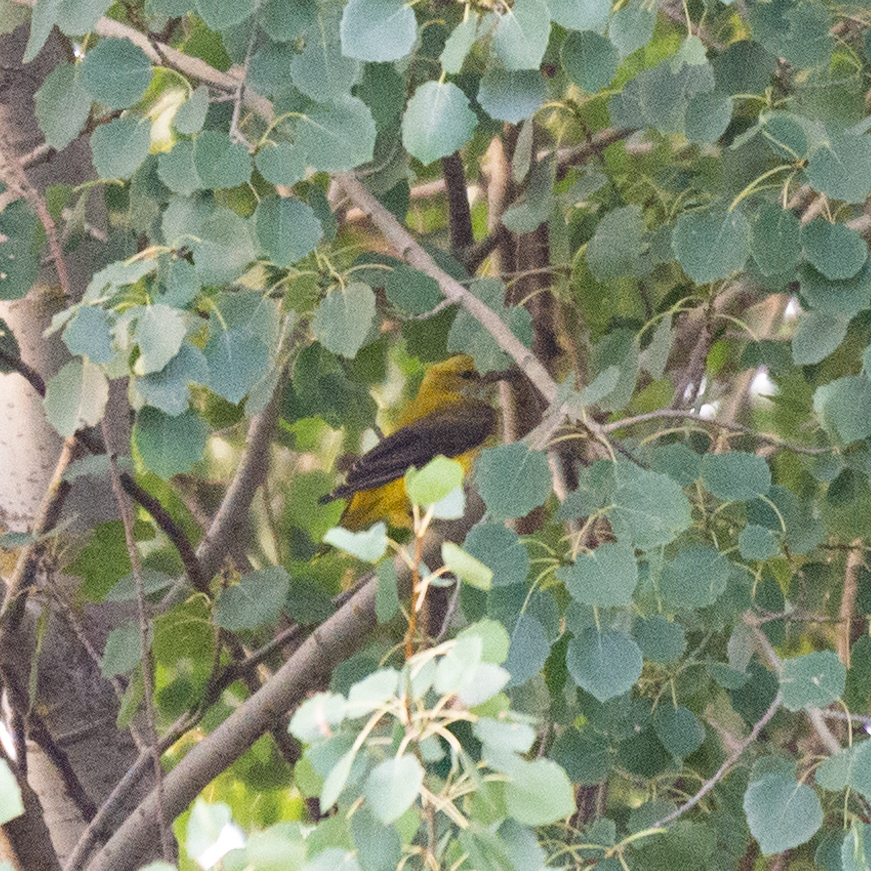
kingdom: Animalia
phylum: Chordata
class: Aves
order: Passeriformes
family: Oriolidae
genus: Oriolus
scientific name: Oriolus oriolus
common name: Eurasian golden oriole
